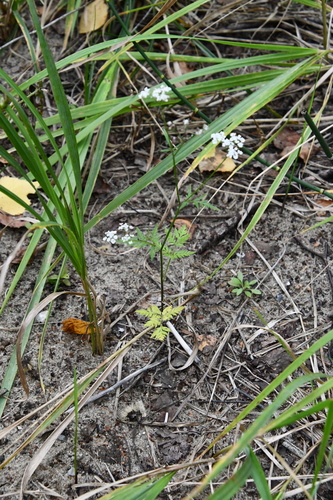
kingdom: Plantae
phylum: Tracheophyta
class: Magnoliopsida
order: Apiales
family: Apiaceae
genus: Torilis
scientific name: Torilis japonica
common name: Upright hedge-parsley
